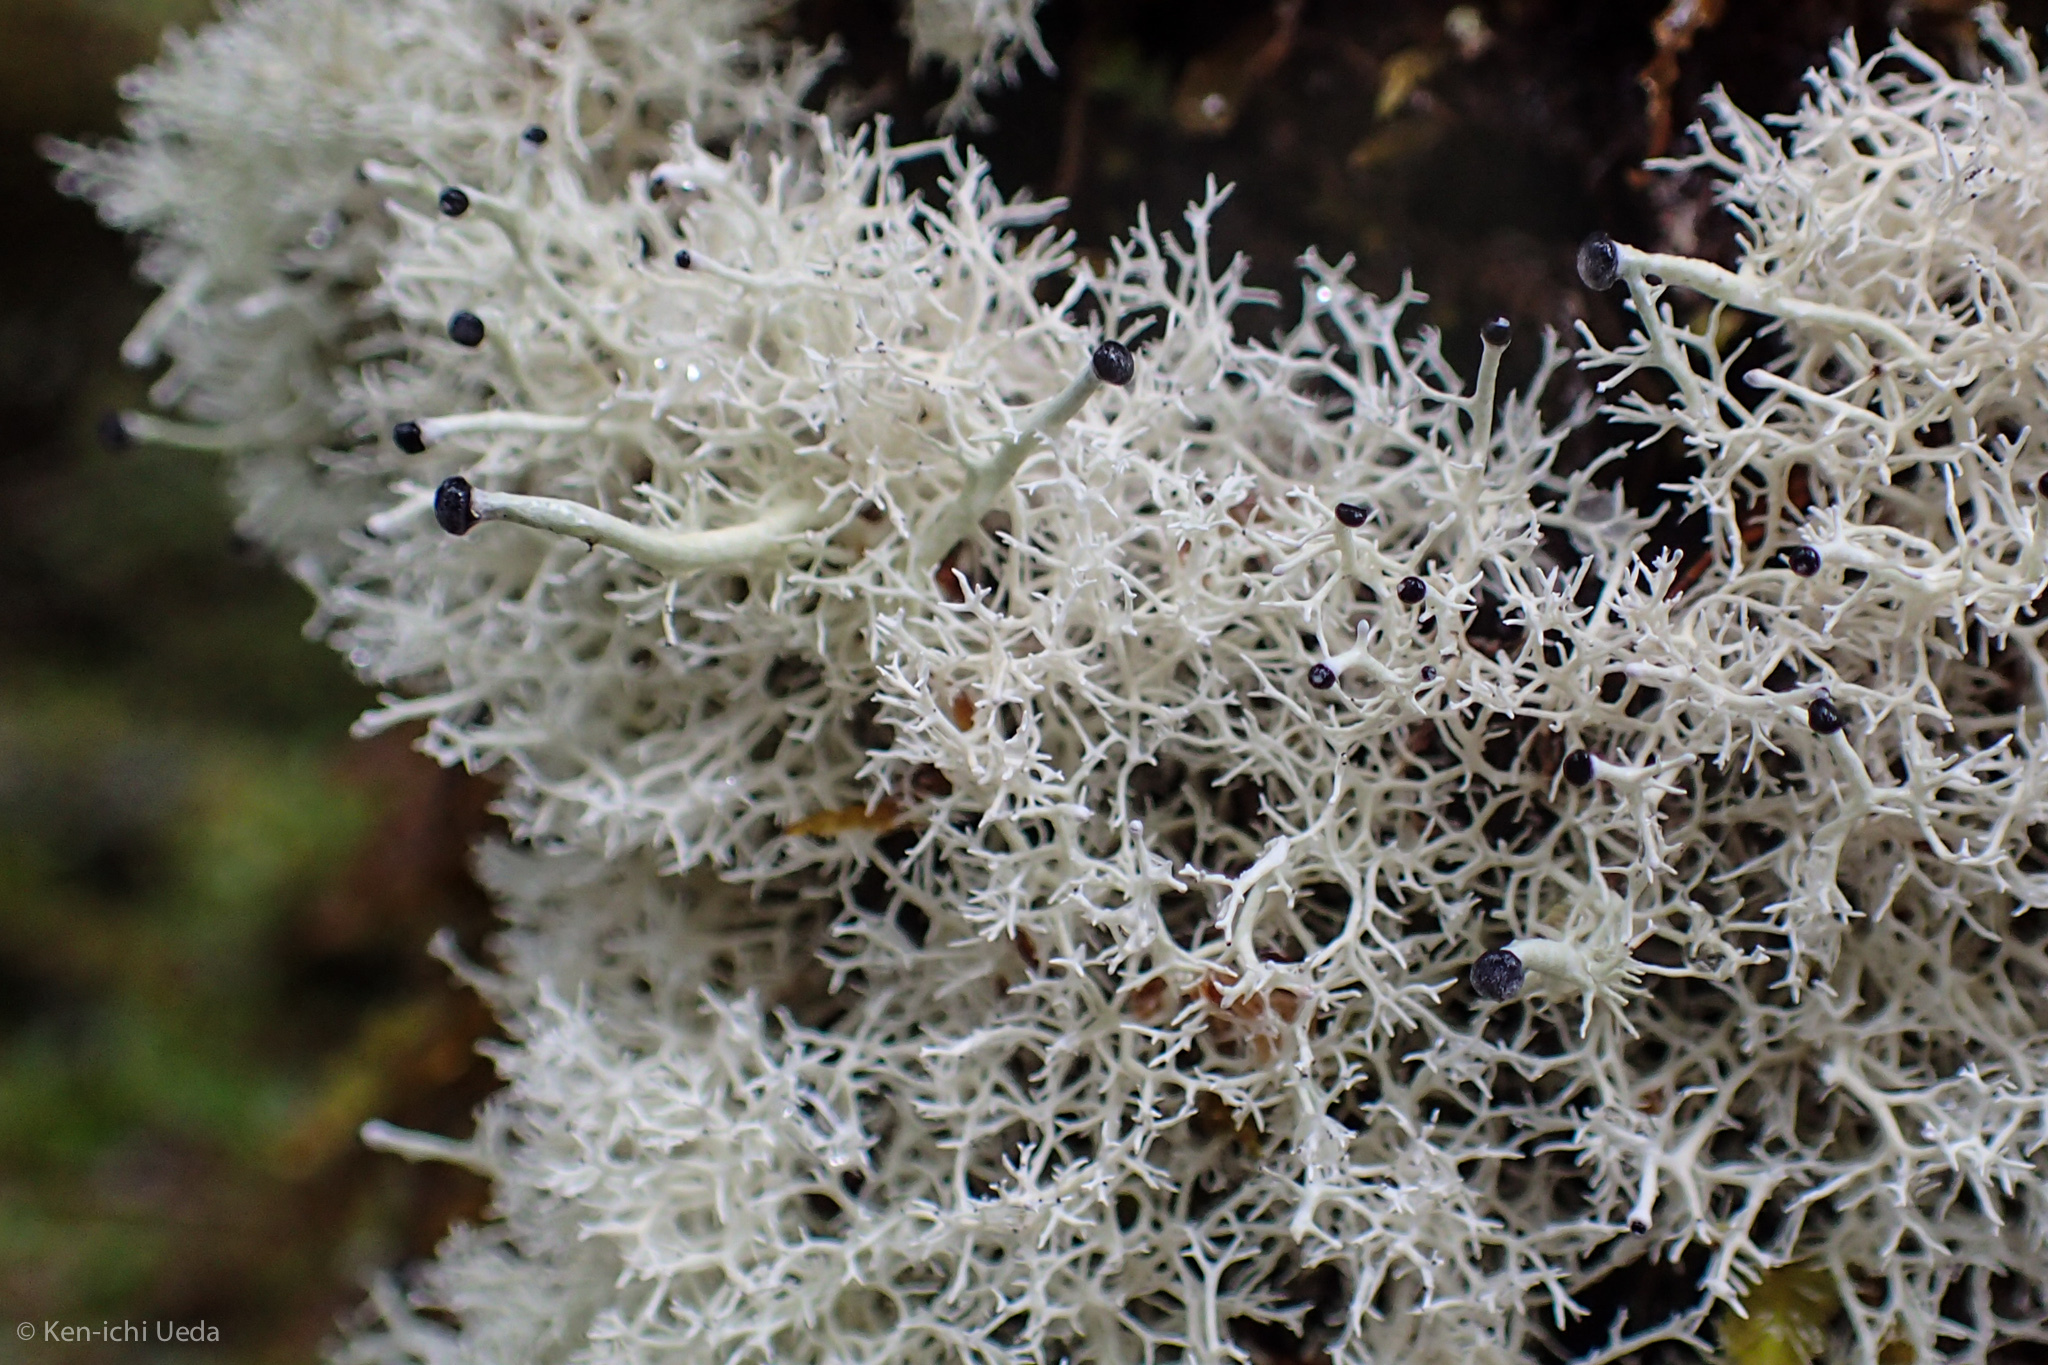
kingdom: Fungi
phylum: Ascomycota
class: Lecanoromycetes
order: Lecanorales
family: Sphaerophoraceae
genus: Leifidium
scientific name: Leifidium tenerum
